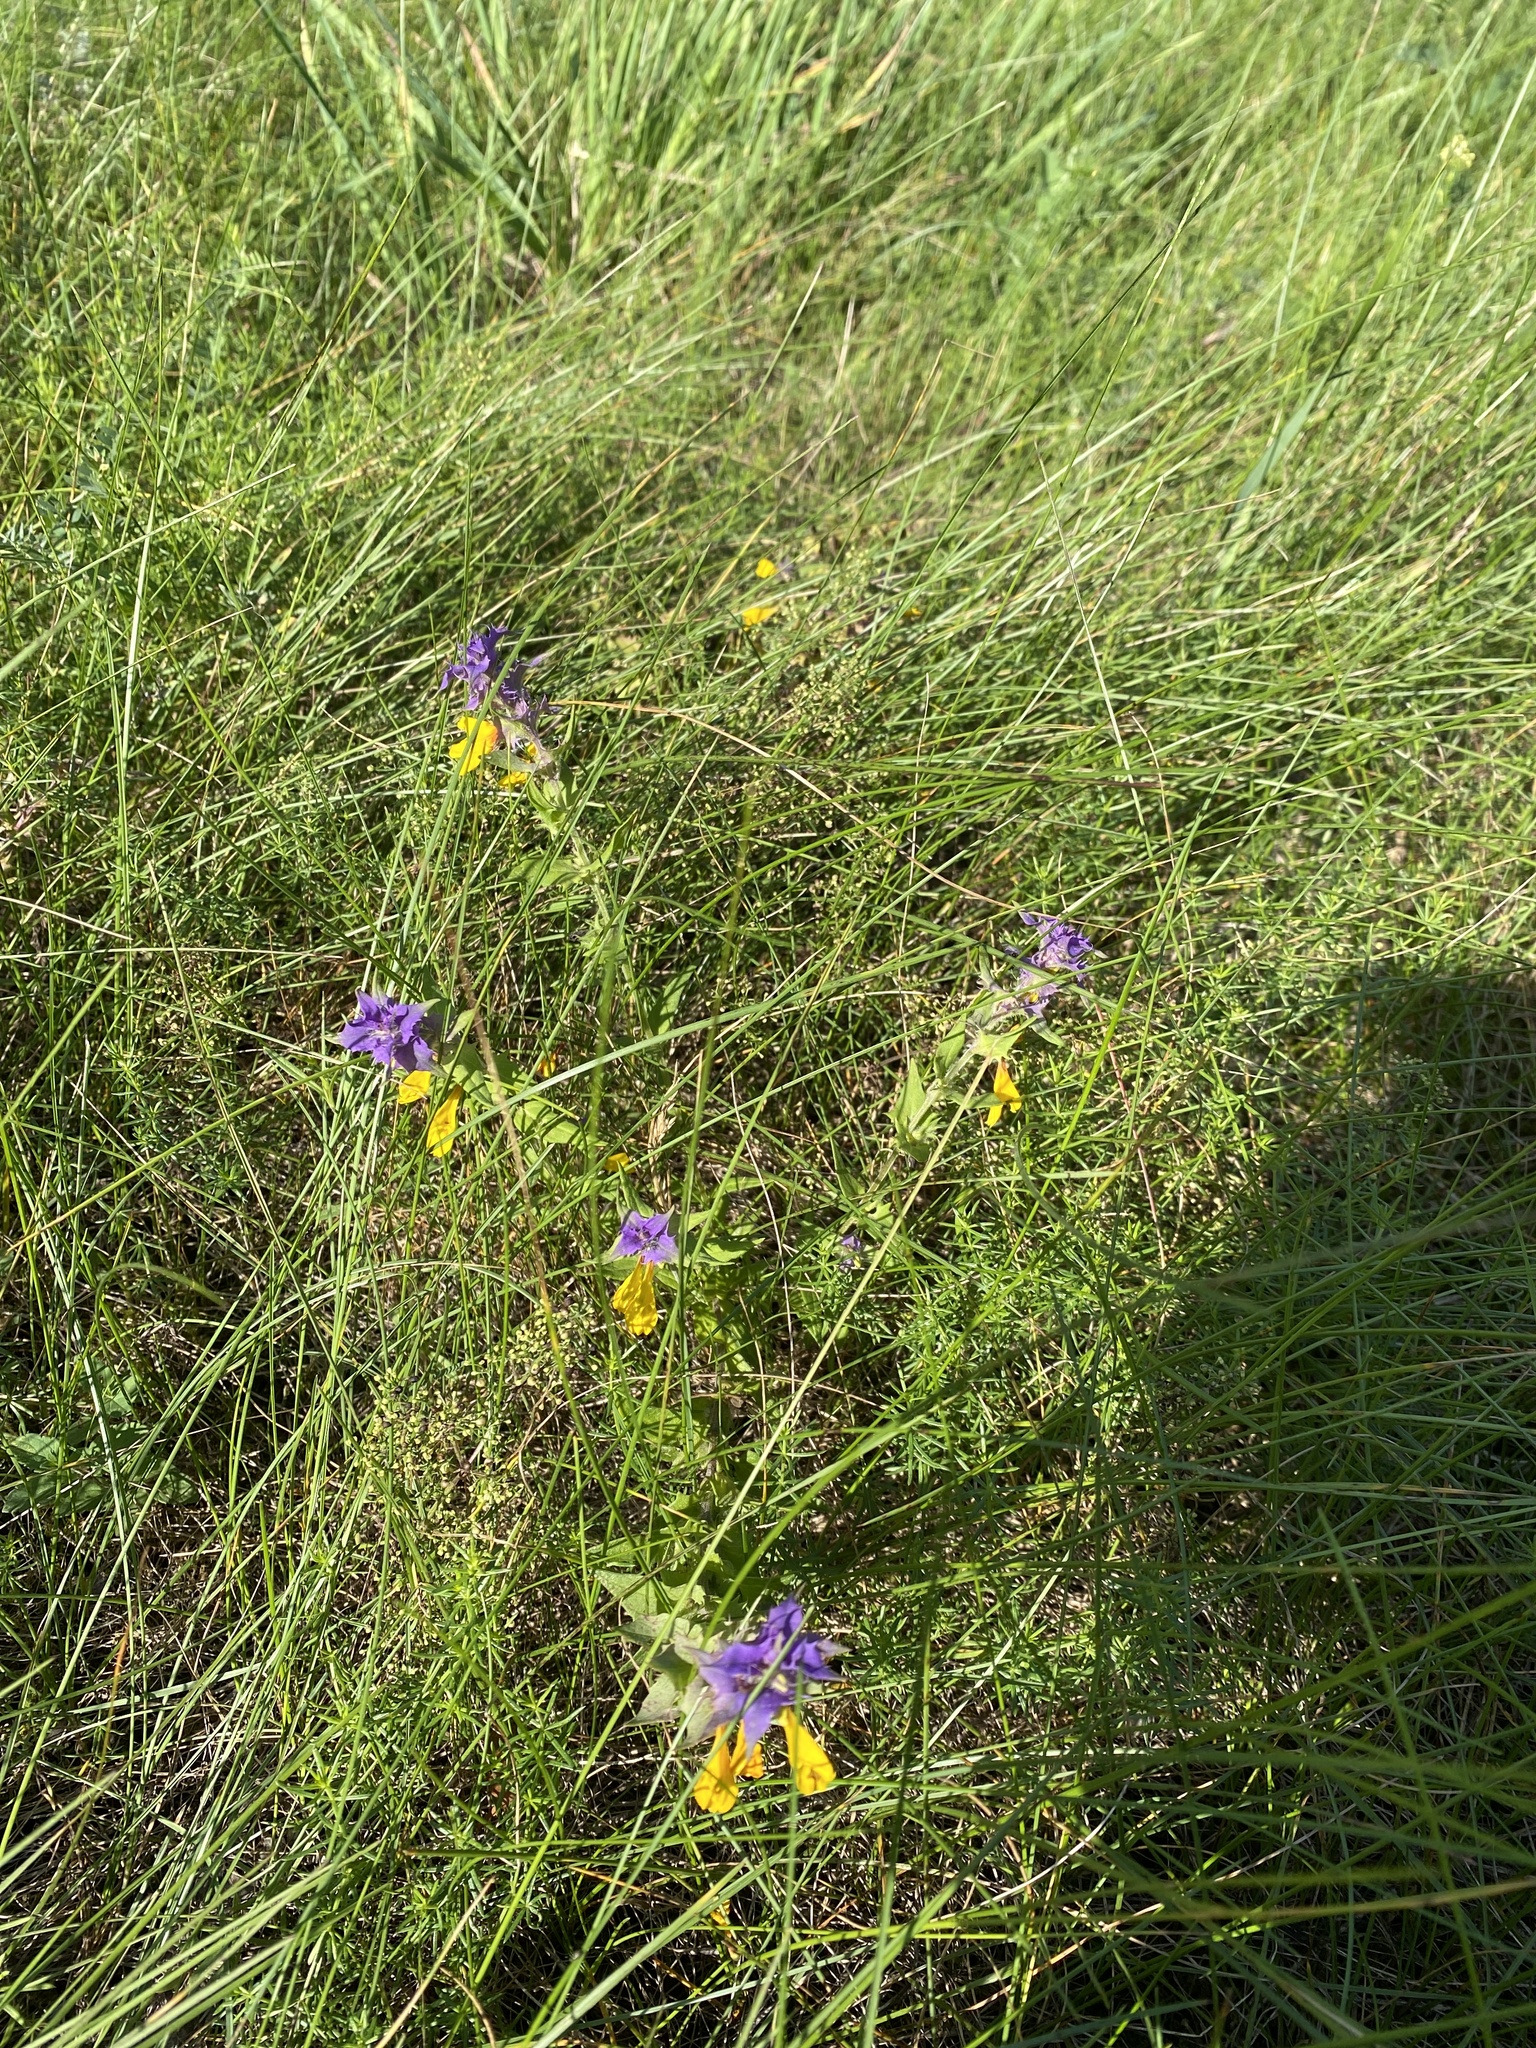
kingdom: Plantae
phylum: Tracheophyta
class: Magnoliopsida
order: Lamiales
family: Orobanchaceae
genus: Melampyrum
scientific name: Melampyrum nemorosum
